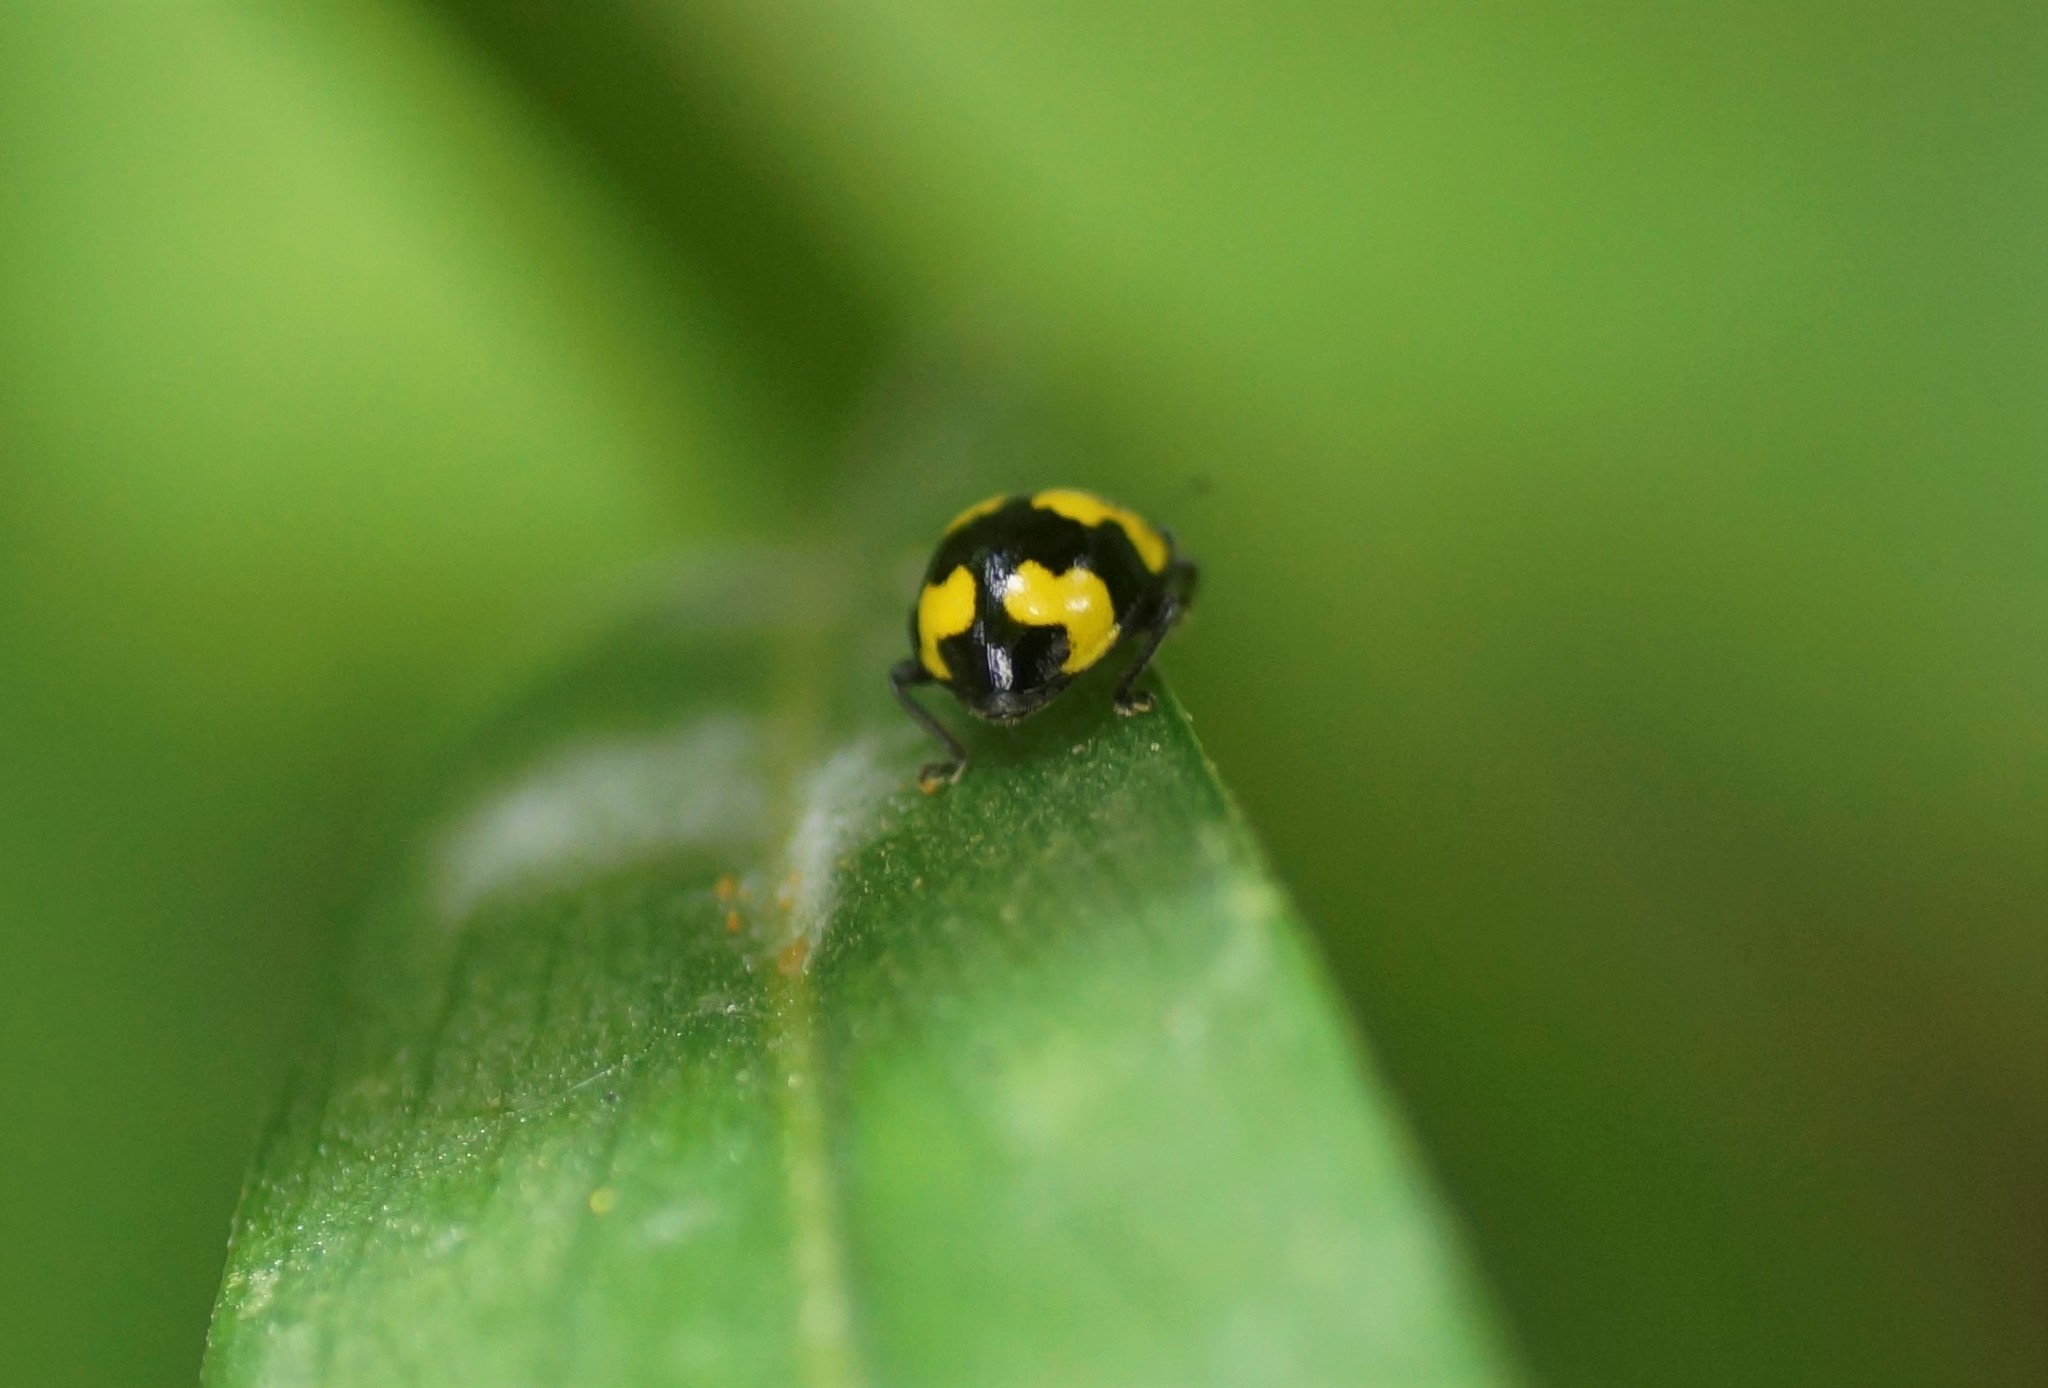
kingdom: Animalia
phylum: Arthropoda
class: Insecta
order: Coleoptera
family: Coccinellidae
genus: Illeis
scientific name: Illeis galbula
